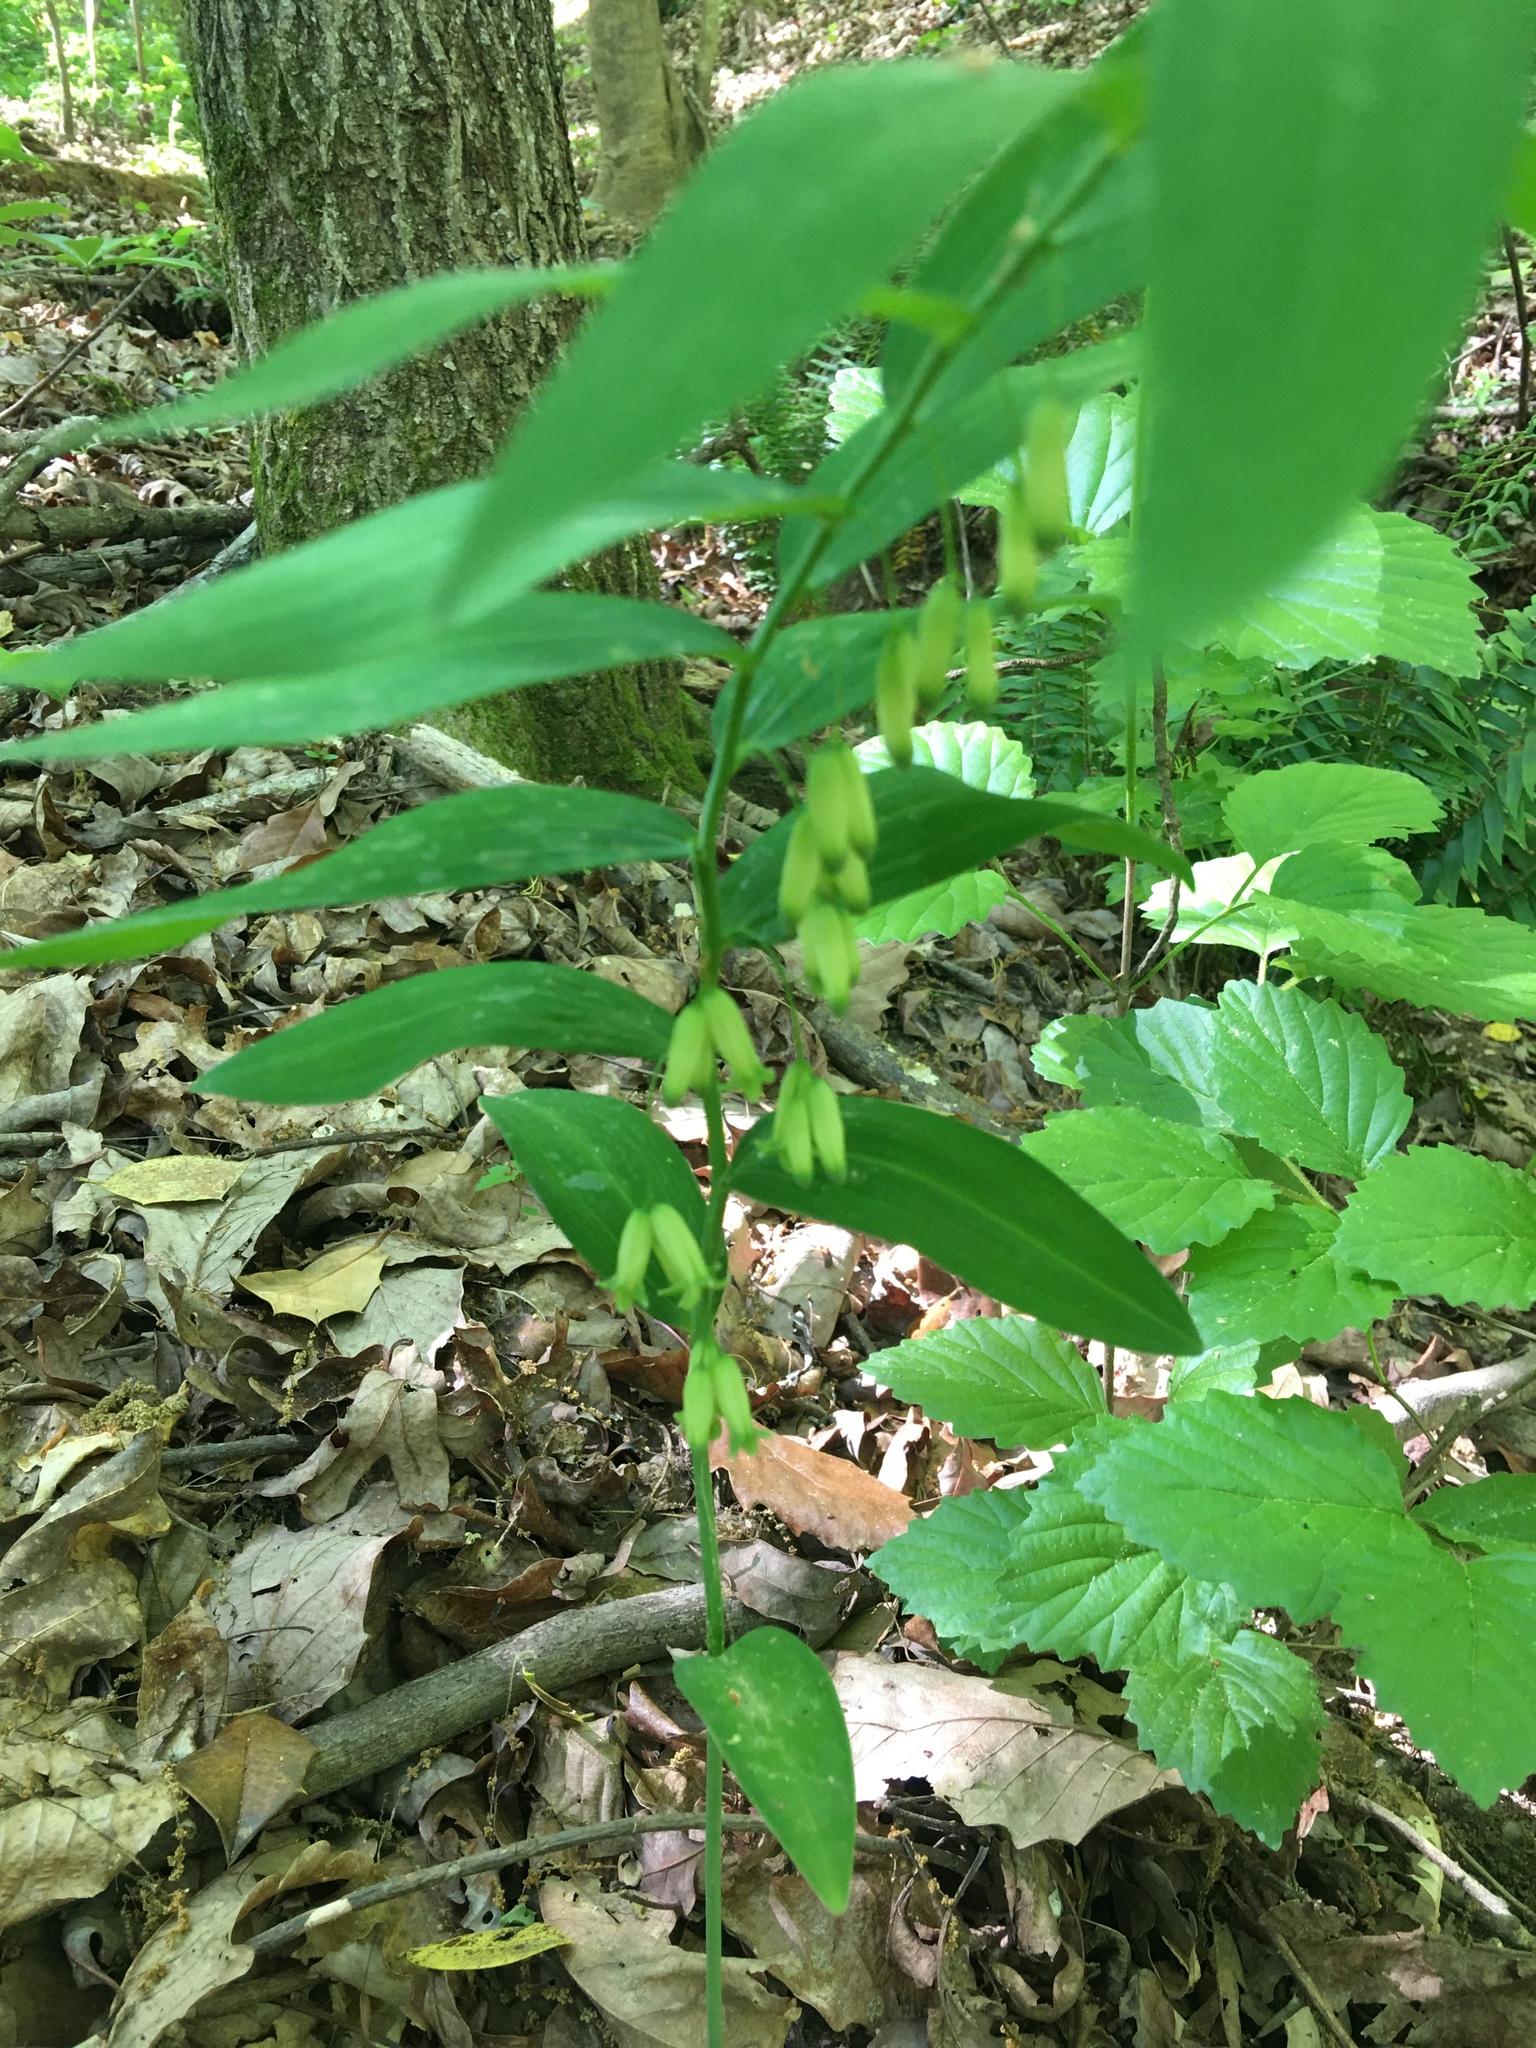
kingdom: Plantae
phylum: Tracheophyta
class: Liliopsida
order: Asparagales
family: Asparagaceae
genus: Polygonatum
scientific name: Polygonatum biflorum
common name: American solomon's-seal
